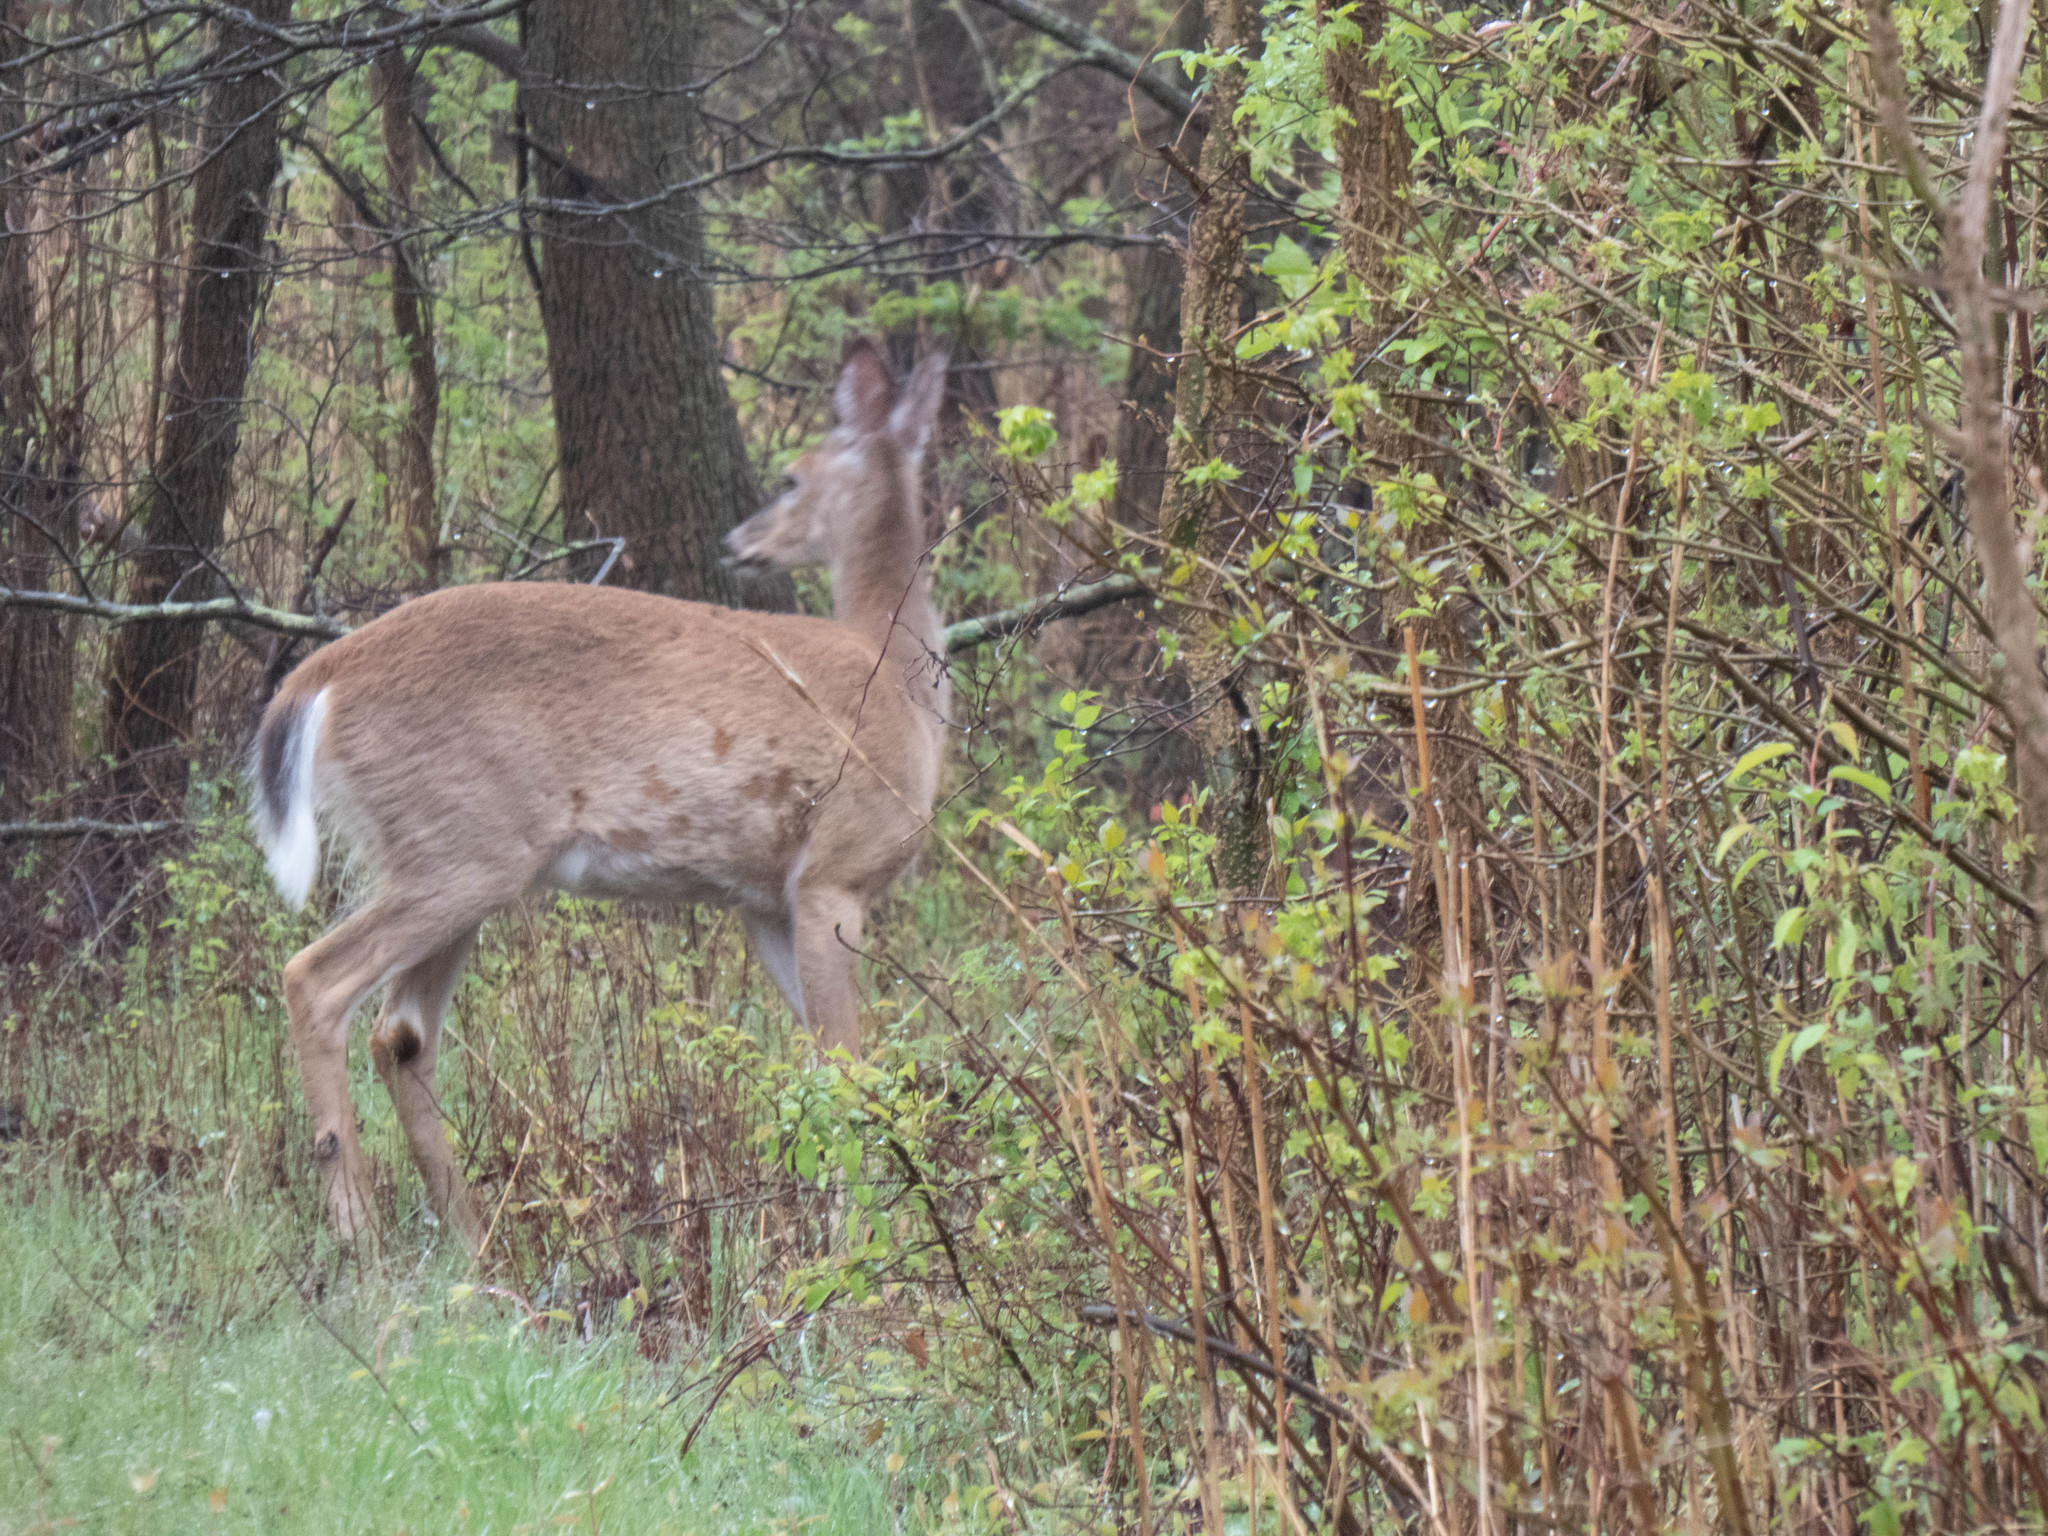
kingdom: Animalia
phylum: Chordata
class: Mammalia
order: Artiodactyla
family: Cervidae
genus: Odocoileus
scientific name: Odocoileus virginianus
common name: White-tailed deer
